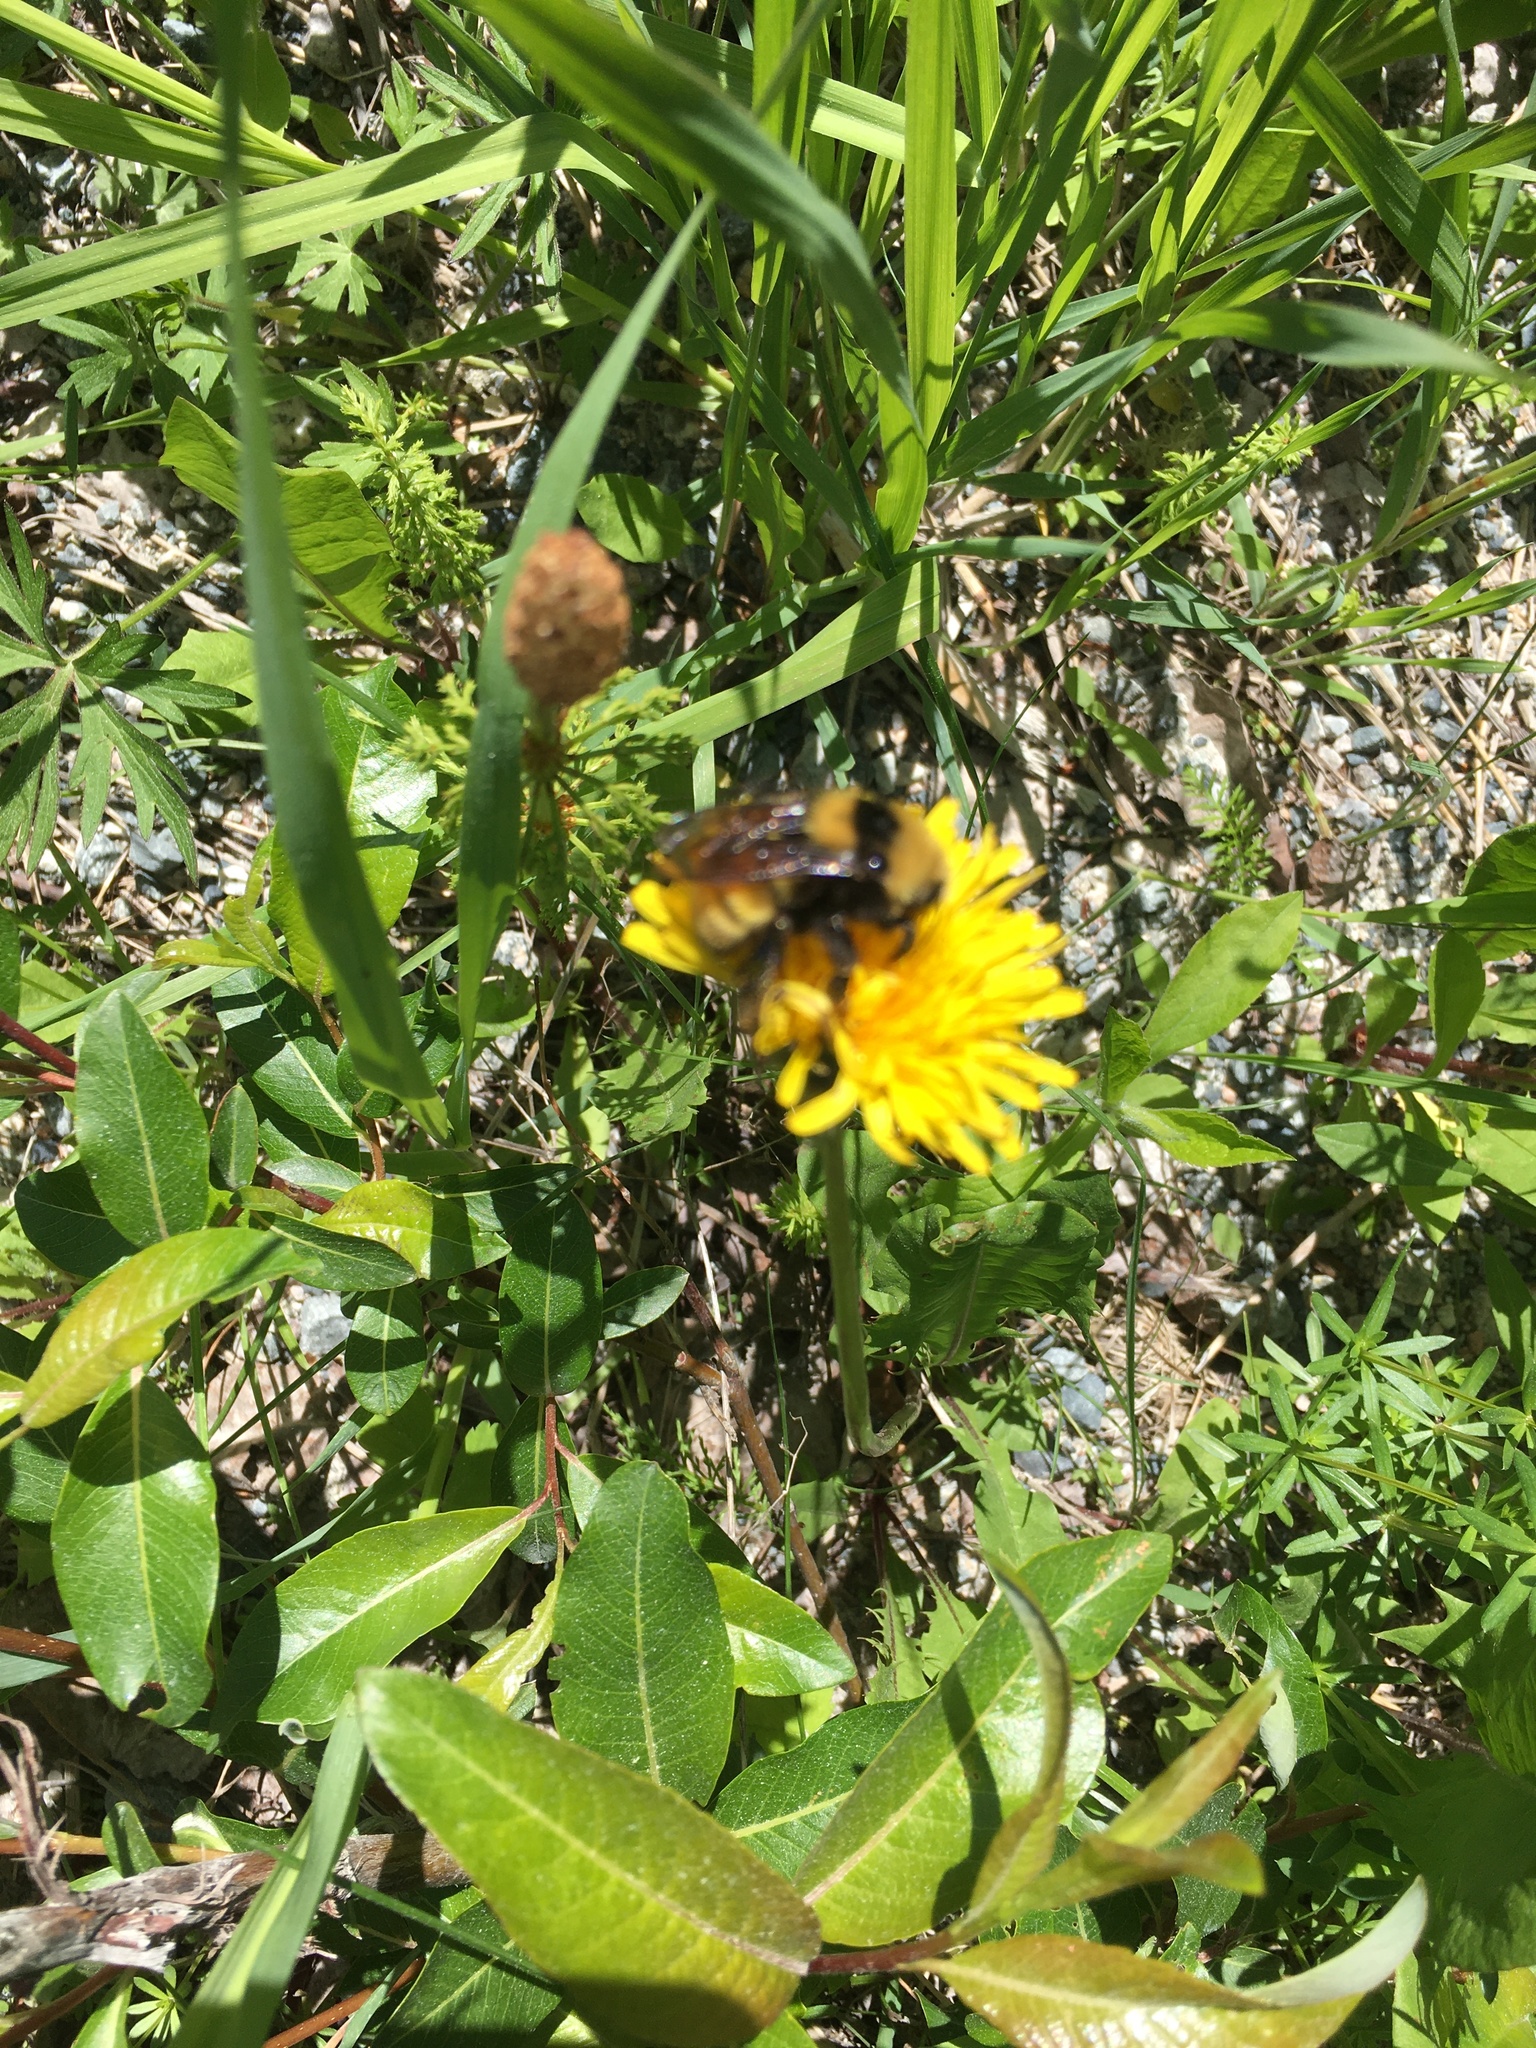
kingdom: Animalia
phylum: Arthropoda
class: Insecta
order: Hymenoptera
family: Apidae
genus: Bombus
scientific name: Bombus borealis
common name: Northern amber bumble bee
